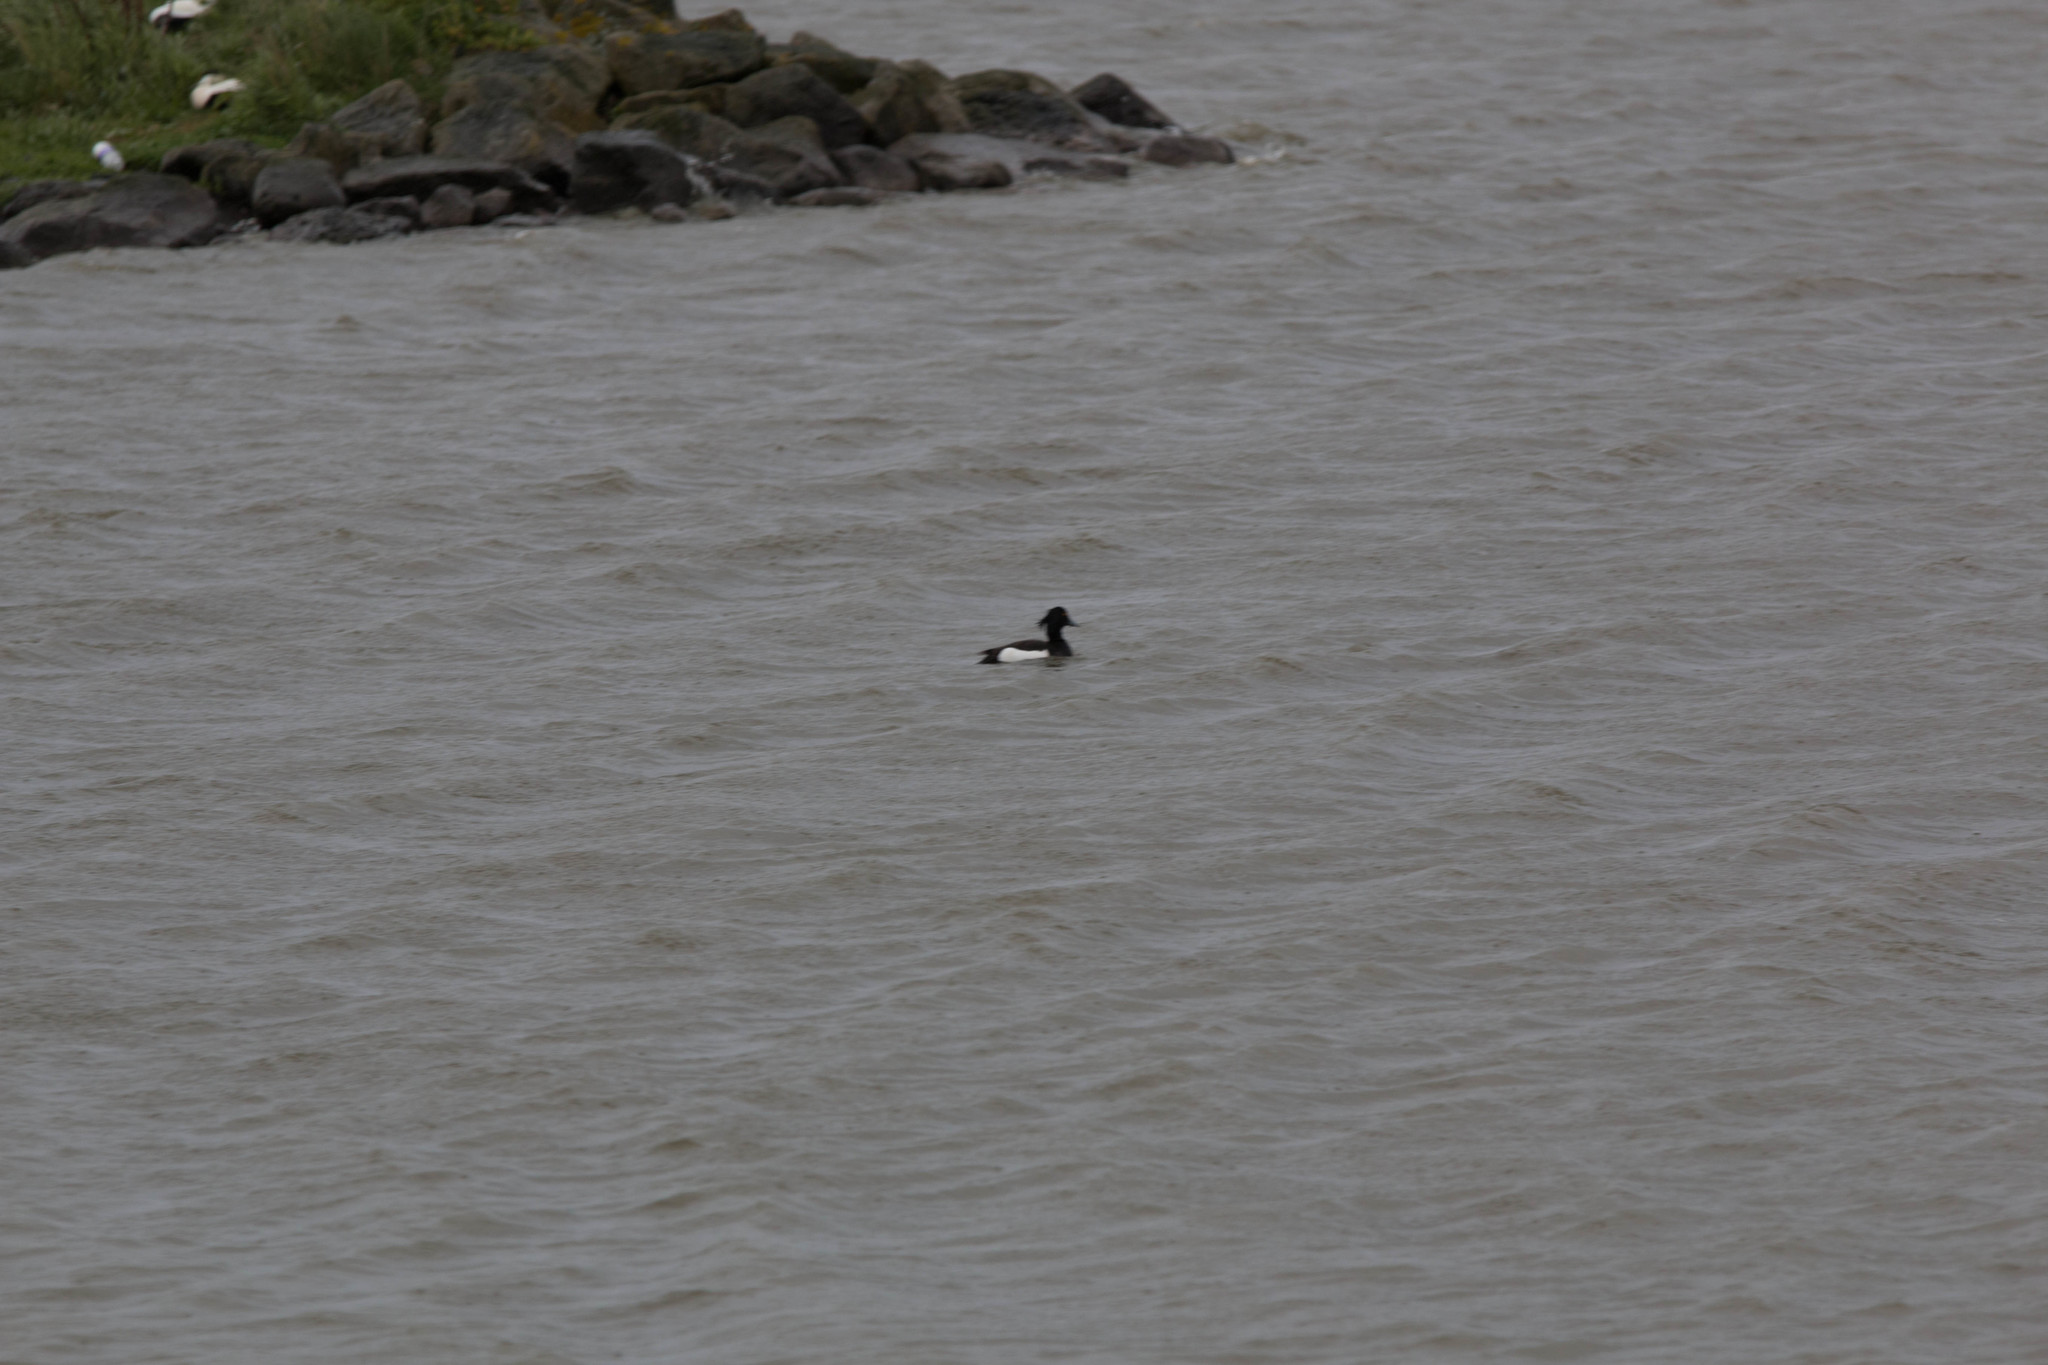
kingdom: Animalia
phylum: Chordata
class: Aves
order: Anseriformes
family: Anatidae
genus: Aythya
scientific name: Aythya fuligula
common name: Tufted duck
